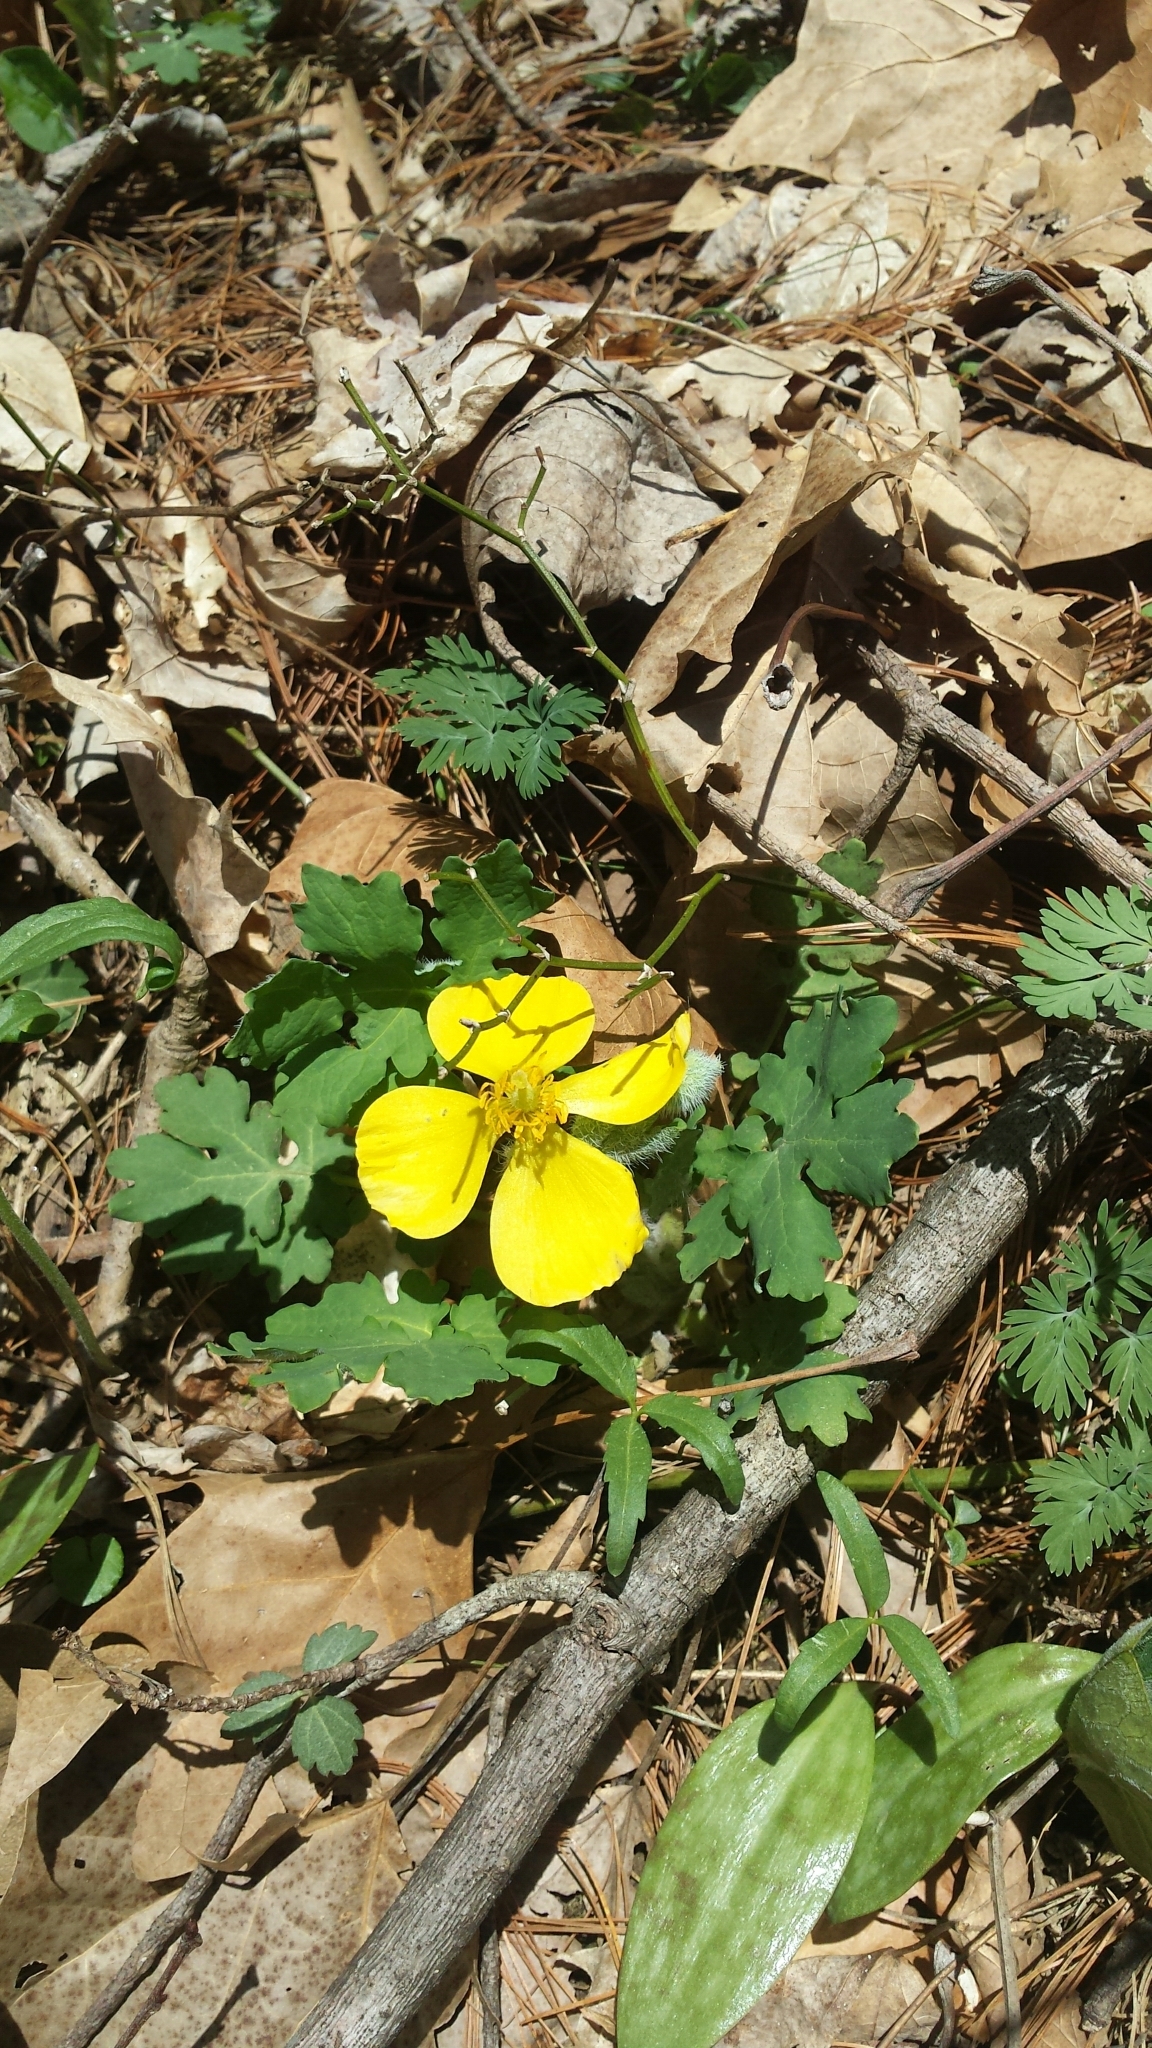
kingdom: Plantae
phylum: Tracheophyta
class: Magnoliopsida
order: Ranunculales
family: Papaveraceae
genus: Stylophorum
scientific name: Stylophorum diphyllum
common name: Celandine poppy
